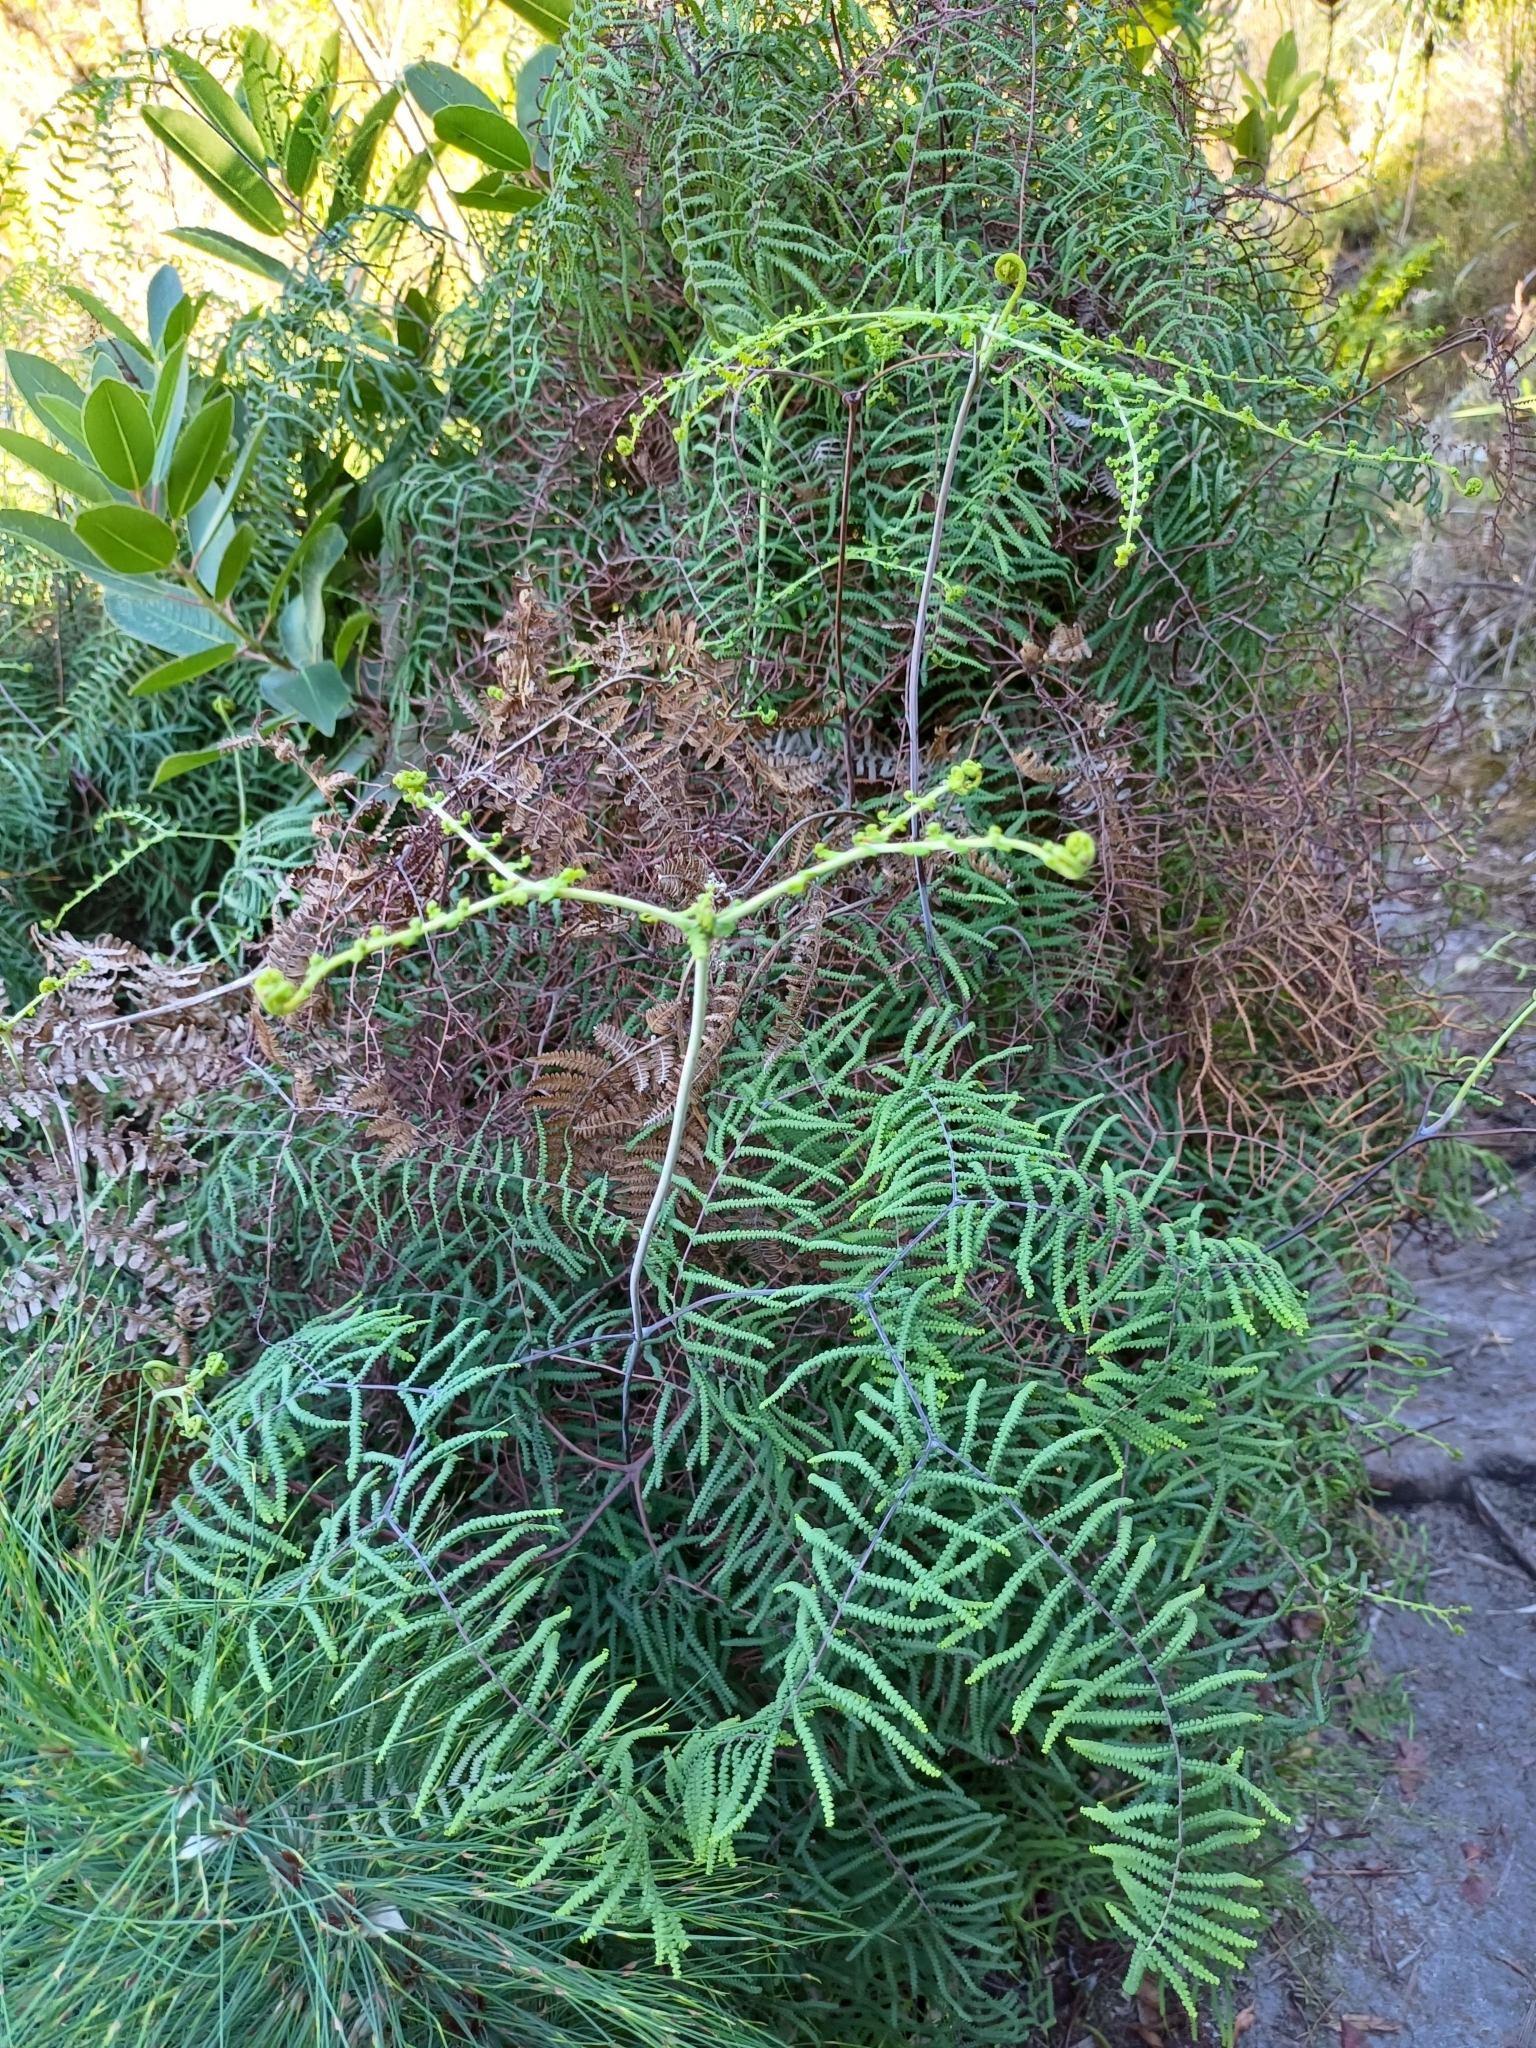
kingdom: Plantae
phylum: Tracheophyta
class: Polypodiopsida
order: Gleicheniales
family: Gleicheniaceae
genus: Gleichenia
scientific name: Gleichenia polypodioides
